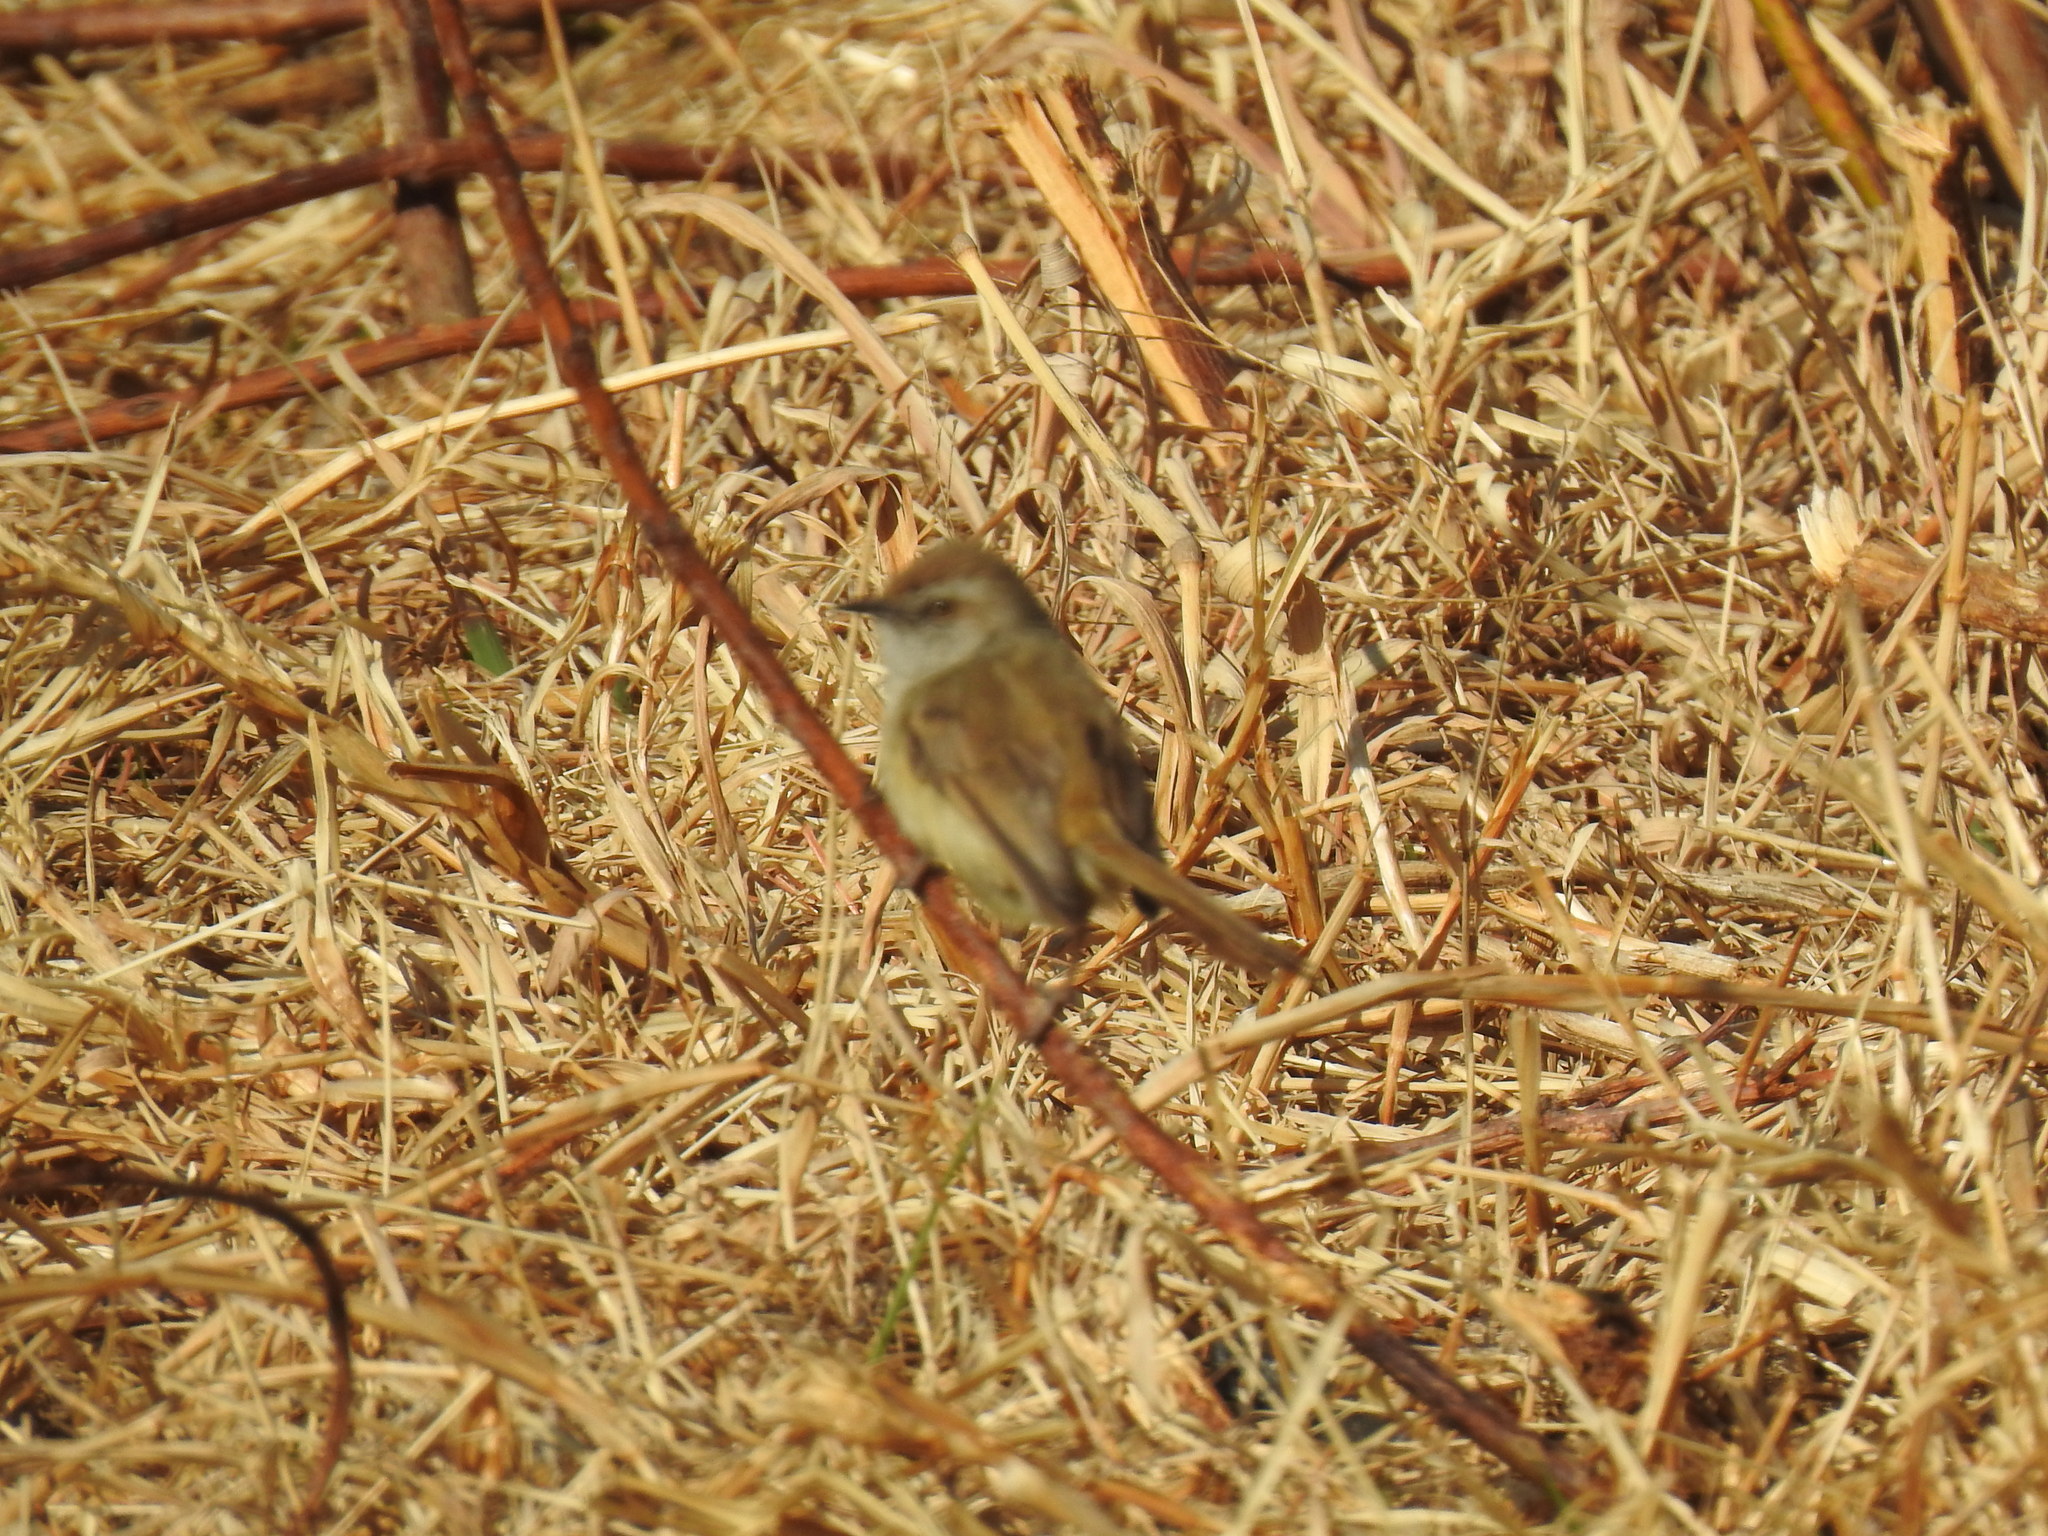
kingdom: Animalia
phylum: Chordata
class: Aves
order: Passeriformes
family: Cisticolidae
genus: Prinia
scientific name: Prinia subflava
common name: Tawny-flanked prinia
